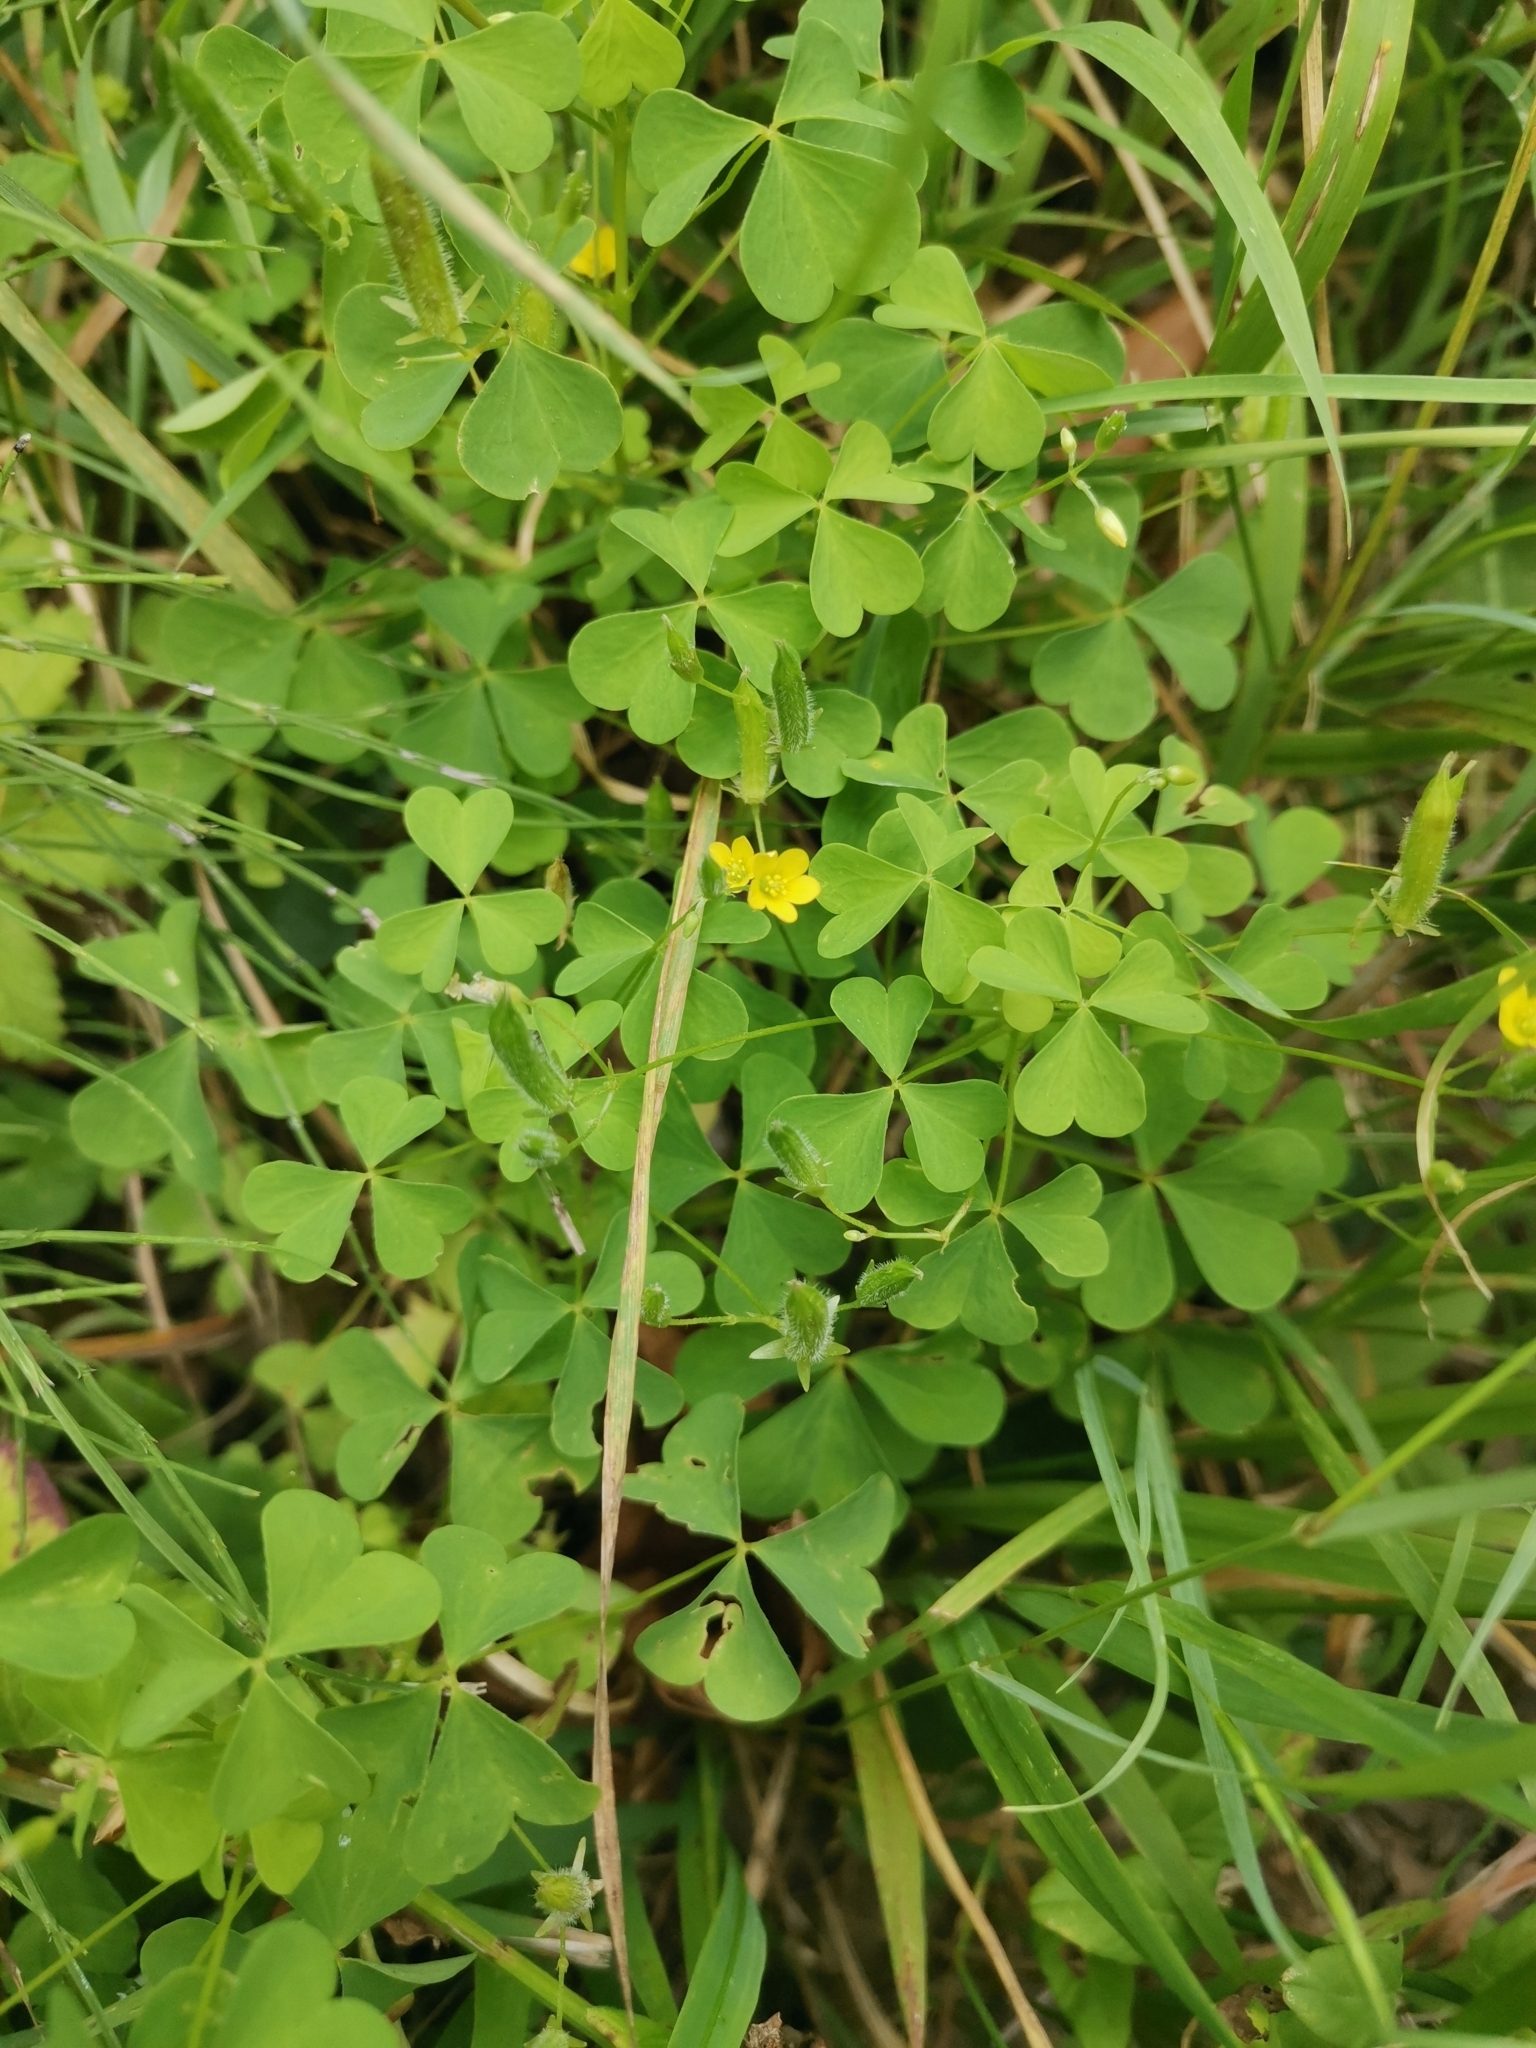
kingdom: Plantae
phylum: Tracheophyta
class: Magnoliopsida
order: Oxalidales
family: Oxalidaceae
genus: Oxalis
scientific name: Oxalis stricta
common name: Upright yellow-sorrel
